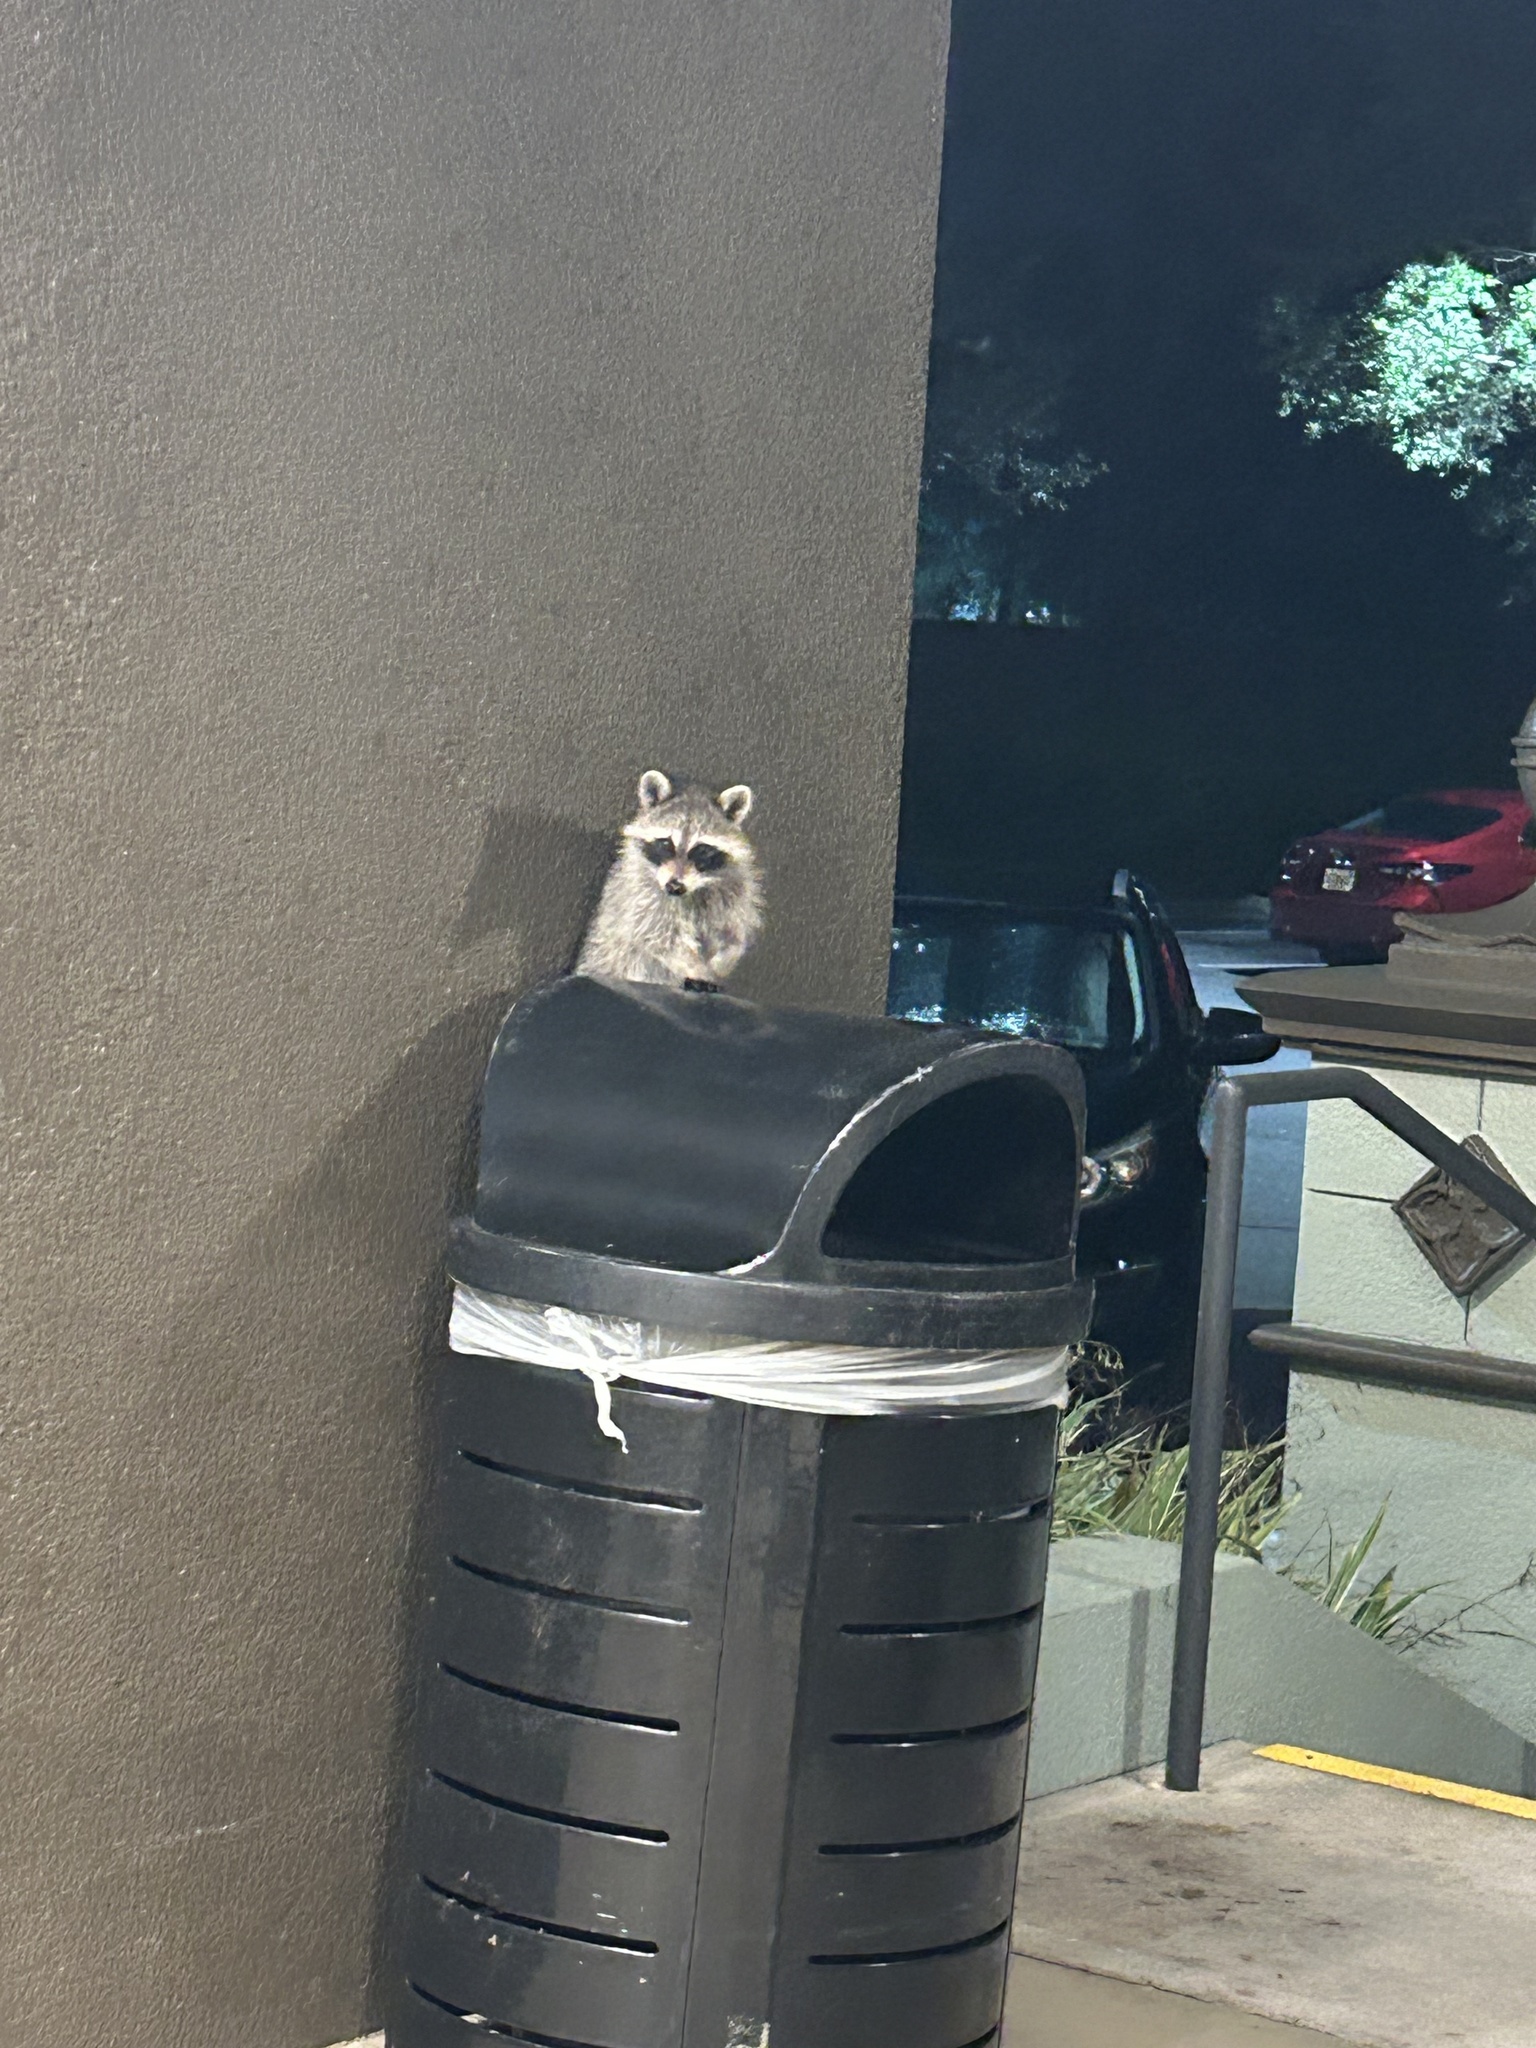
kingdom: Animalia
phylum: Chordata
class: Mammalia
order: Carnivora
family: Procyonidae
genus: Procyon
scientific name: Procyon lotor
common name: Raccoon
